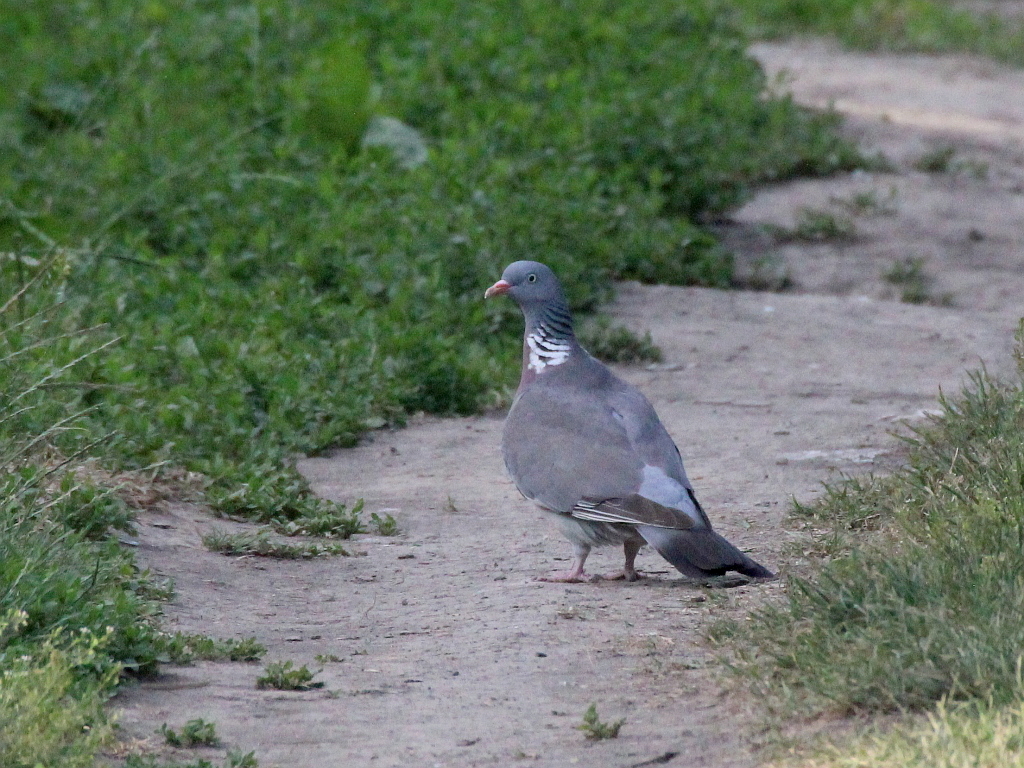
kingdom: Animalia
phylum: Chordata
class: Aves
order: Columbiformes
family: Columbidae
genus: Columba
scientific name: Columba palumbus
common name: Common wood pigeon
